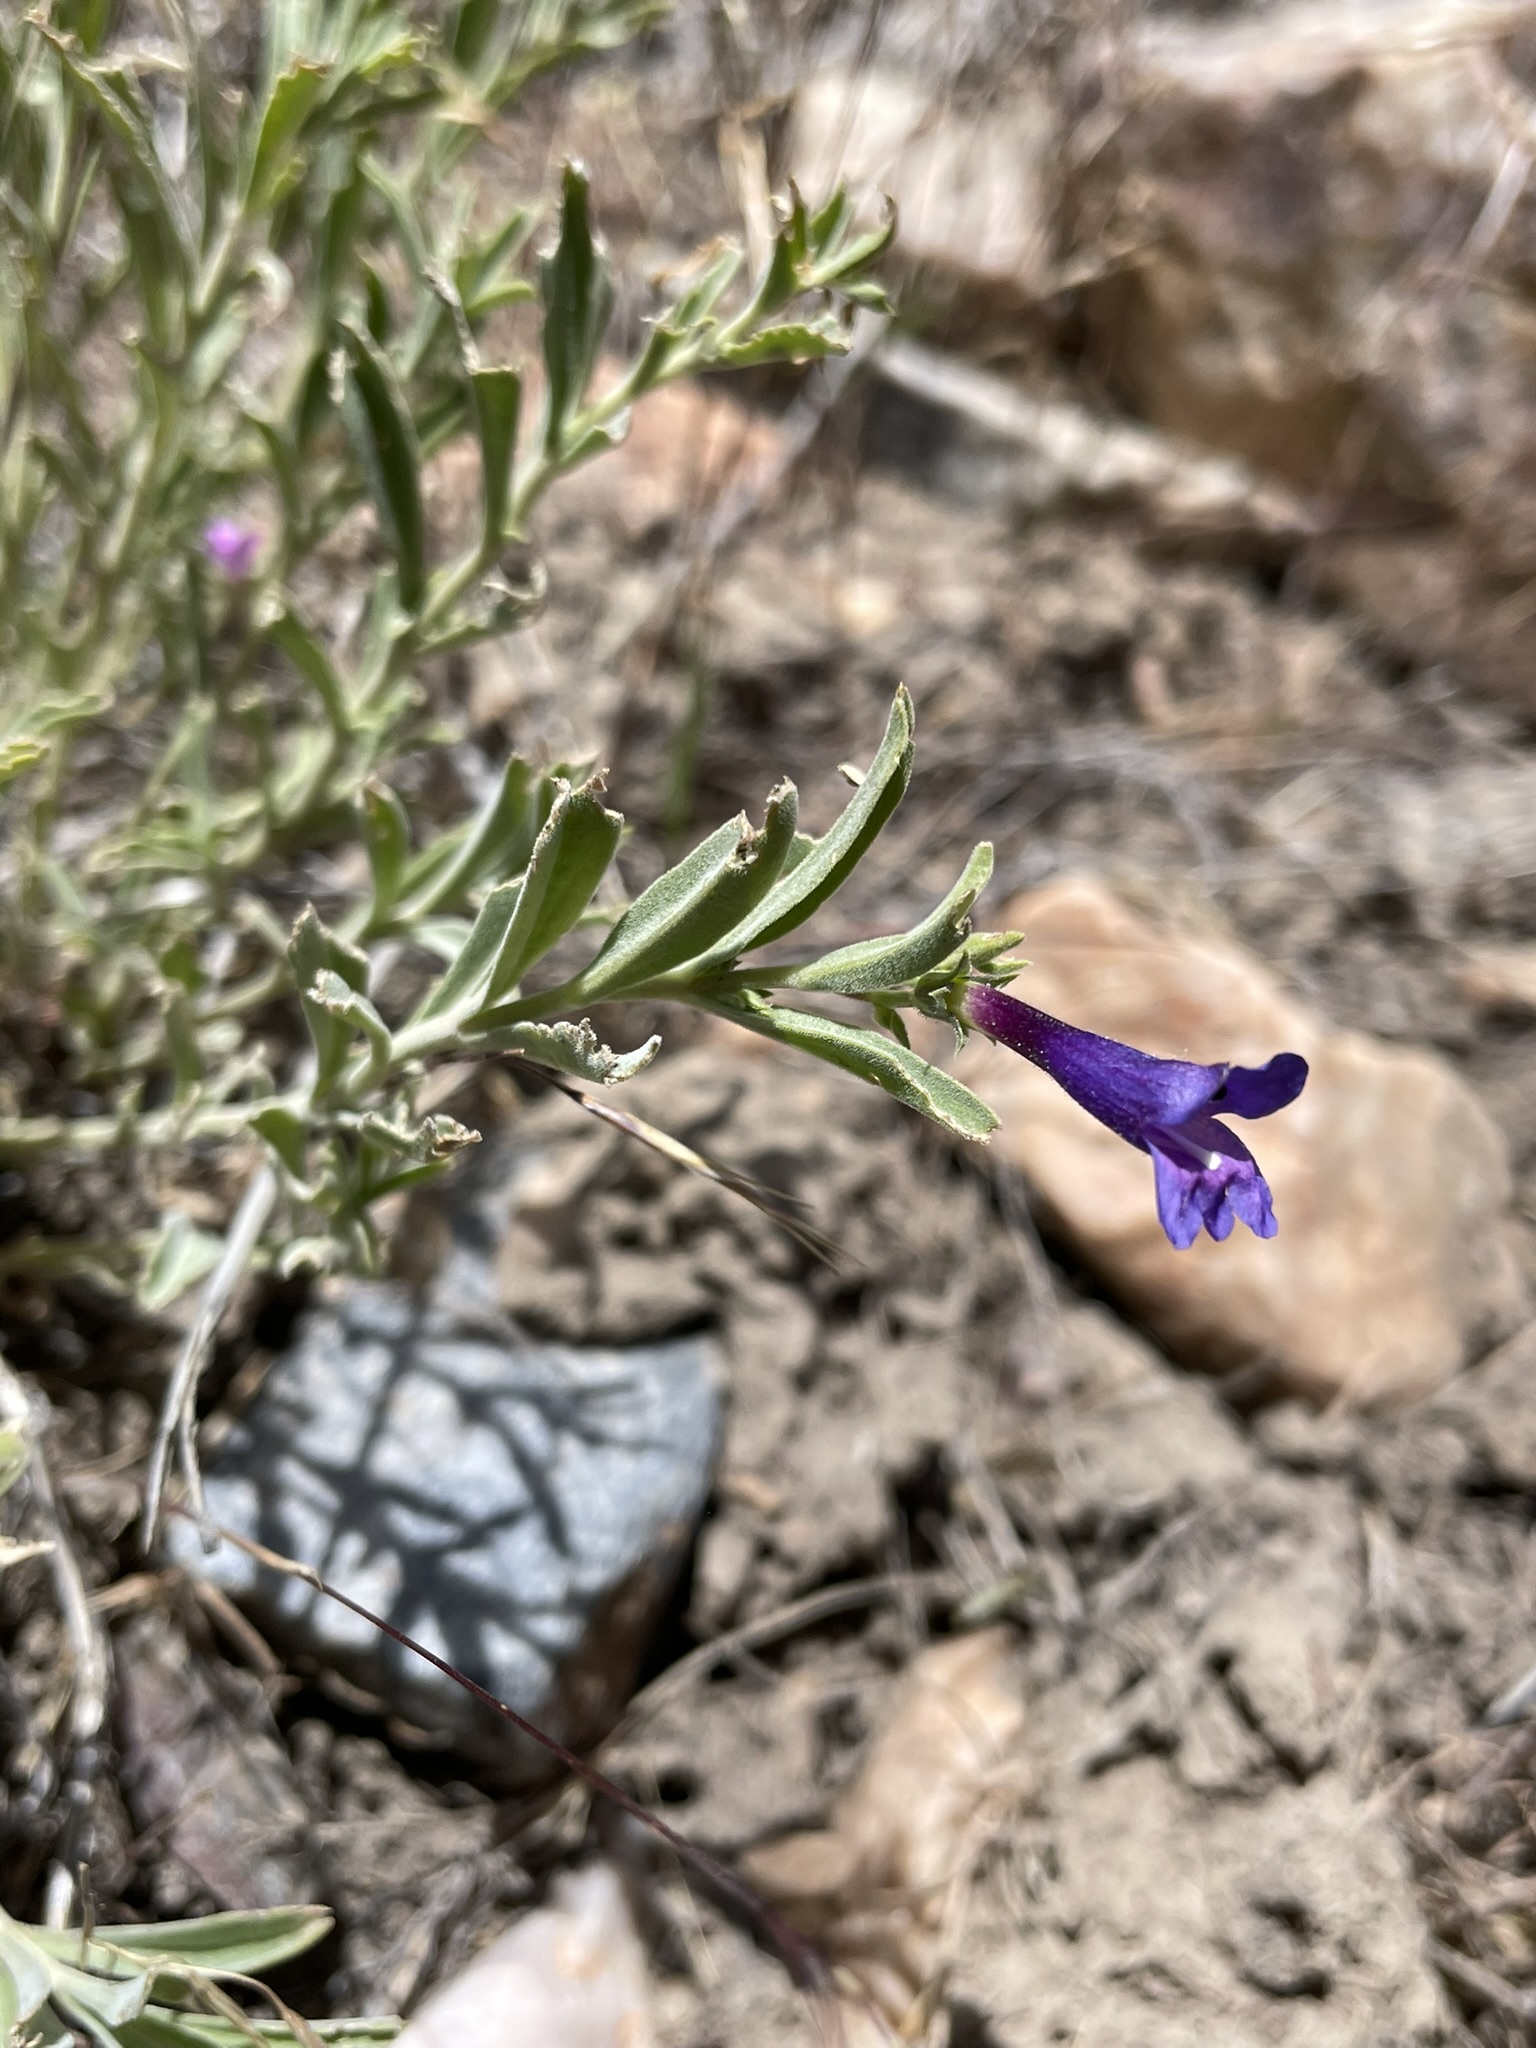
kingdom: Plantae
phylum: Tracheophyta
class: Magnoliopsida
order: Lamiales
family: Plantaginaceae
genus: Penstemon
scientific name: Penstemon kingii
